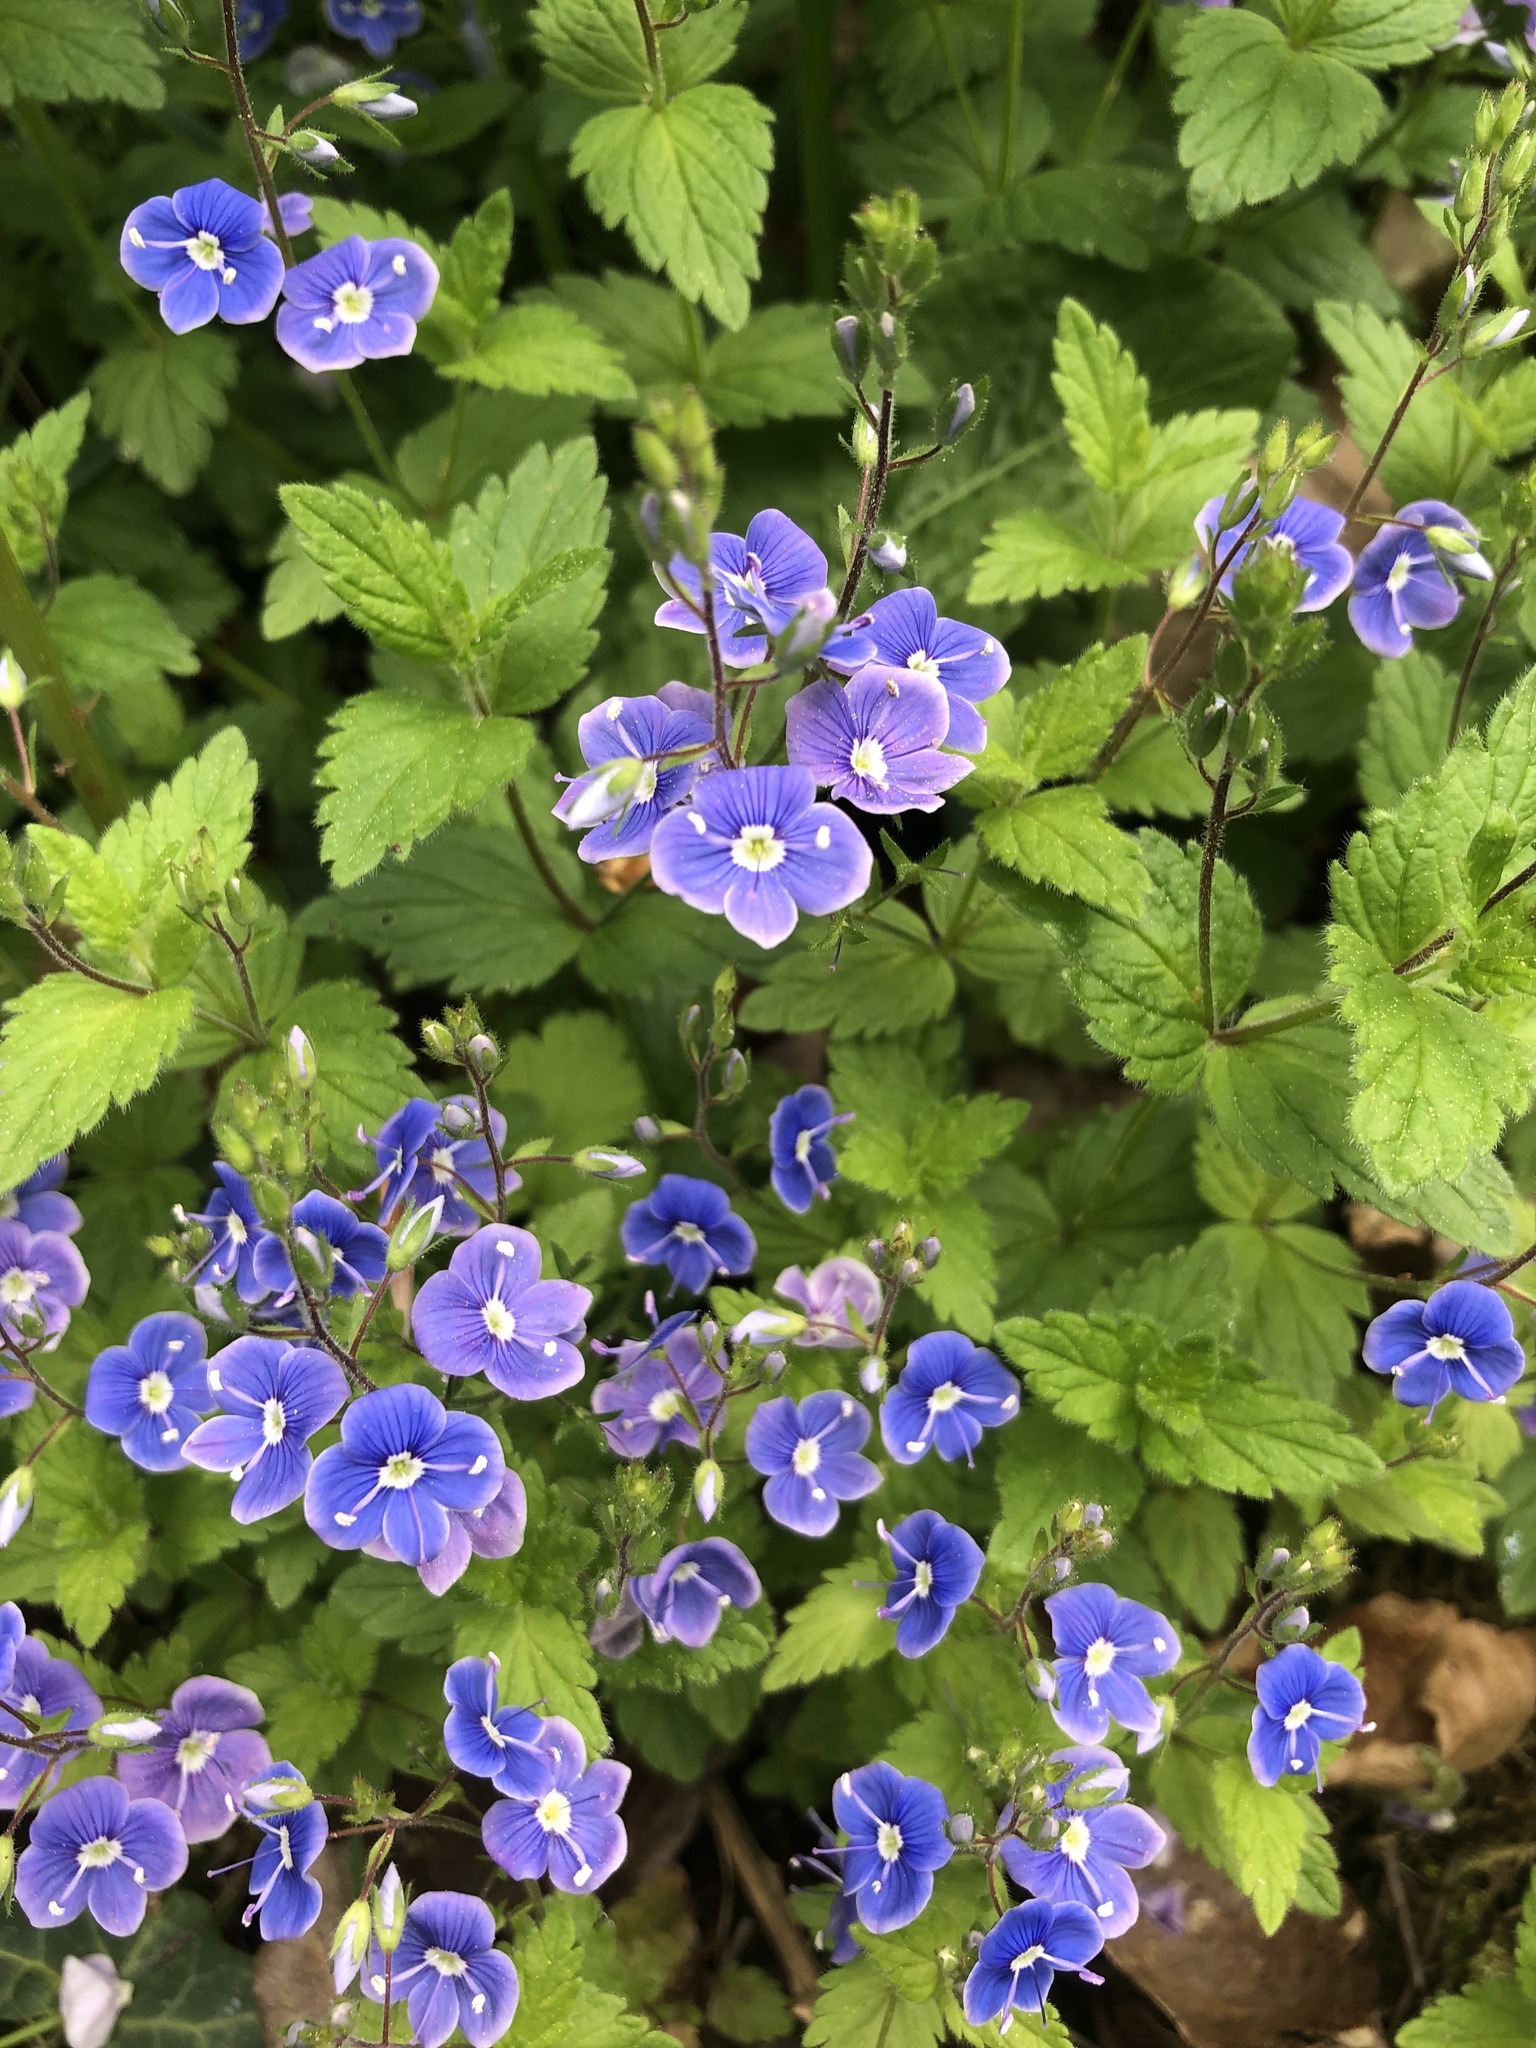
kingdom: Plantae
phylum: Tracheophyta
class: Magnoliopsida
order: Lamiales
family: Plantaginaceae
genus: Veronica
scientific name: Veronica chamaedrys
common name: Germander speedwell
